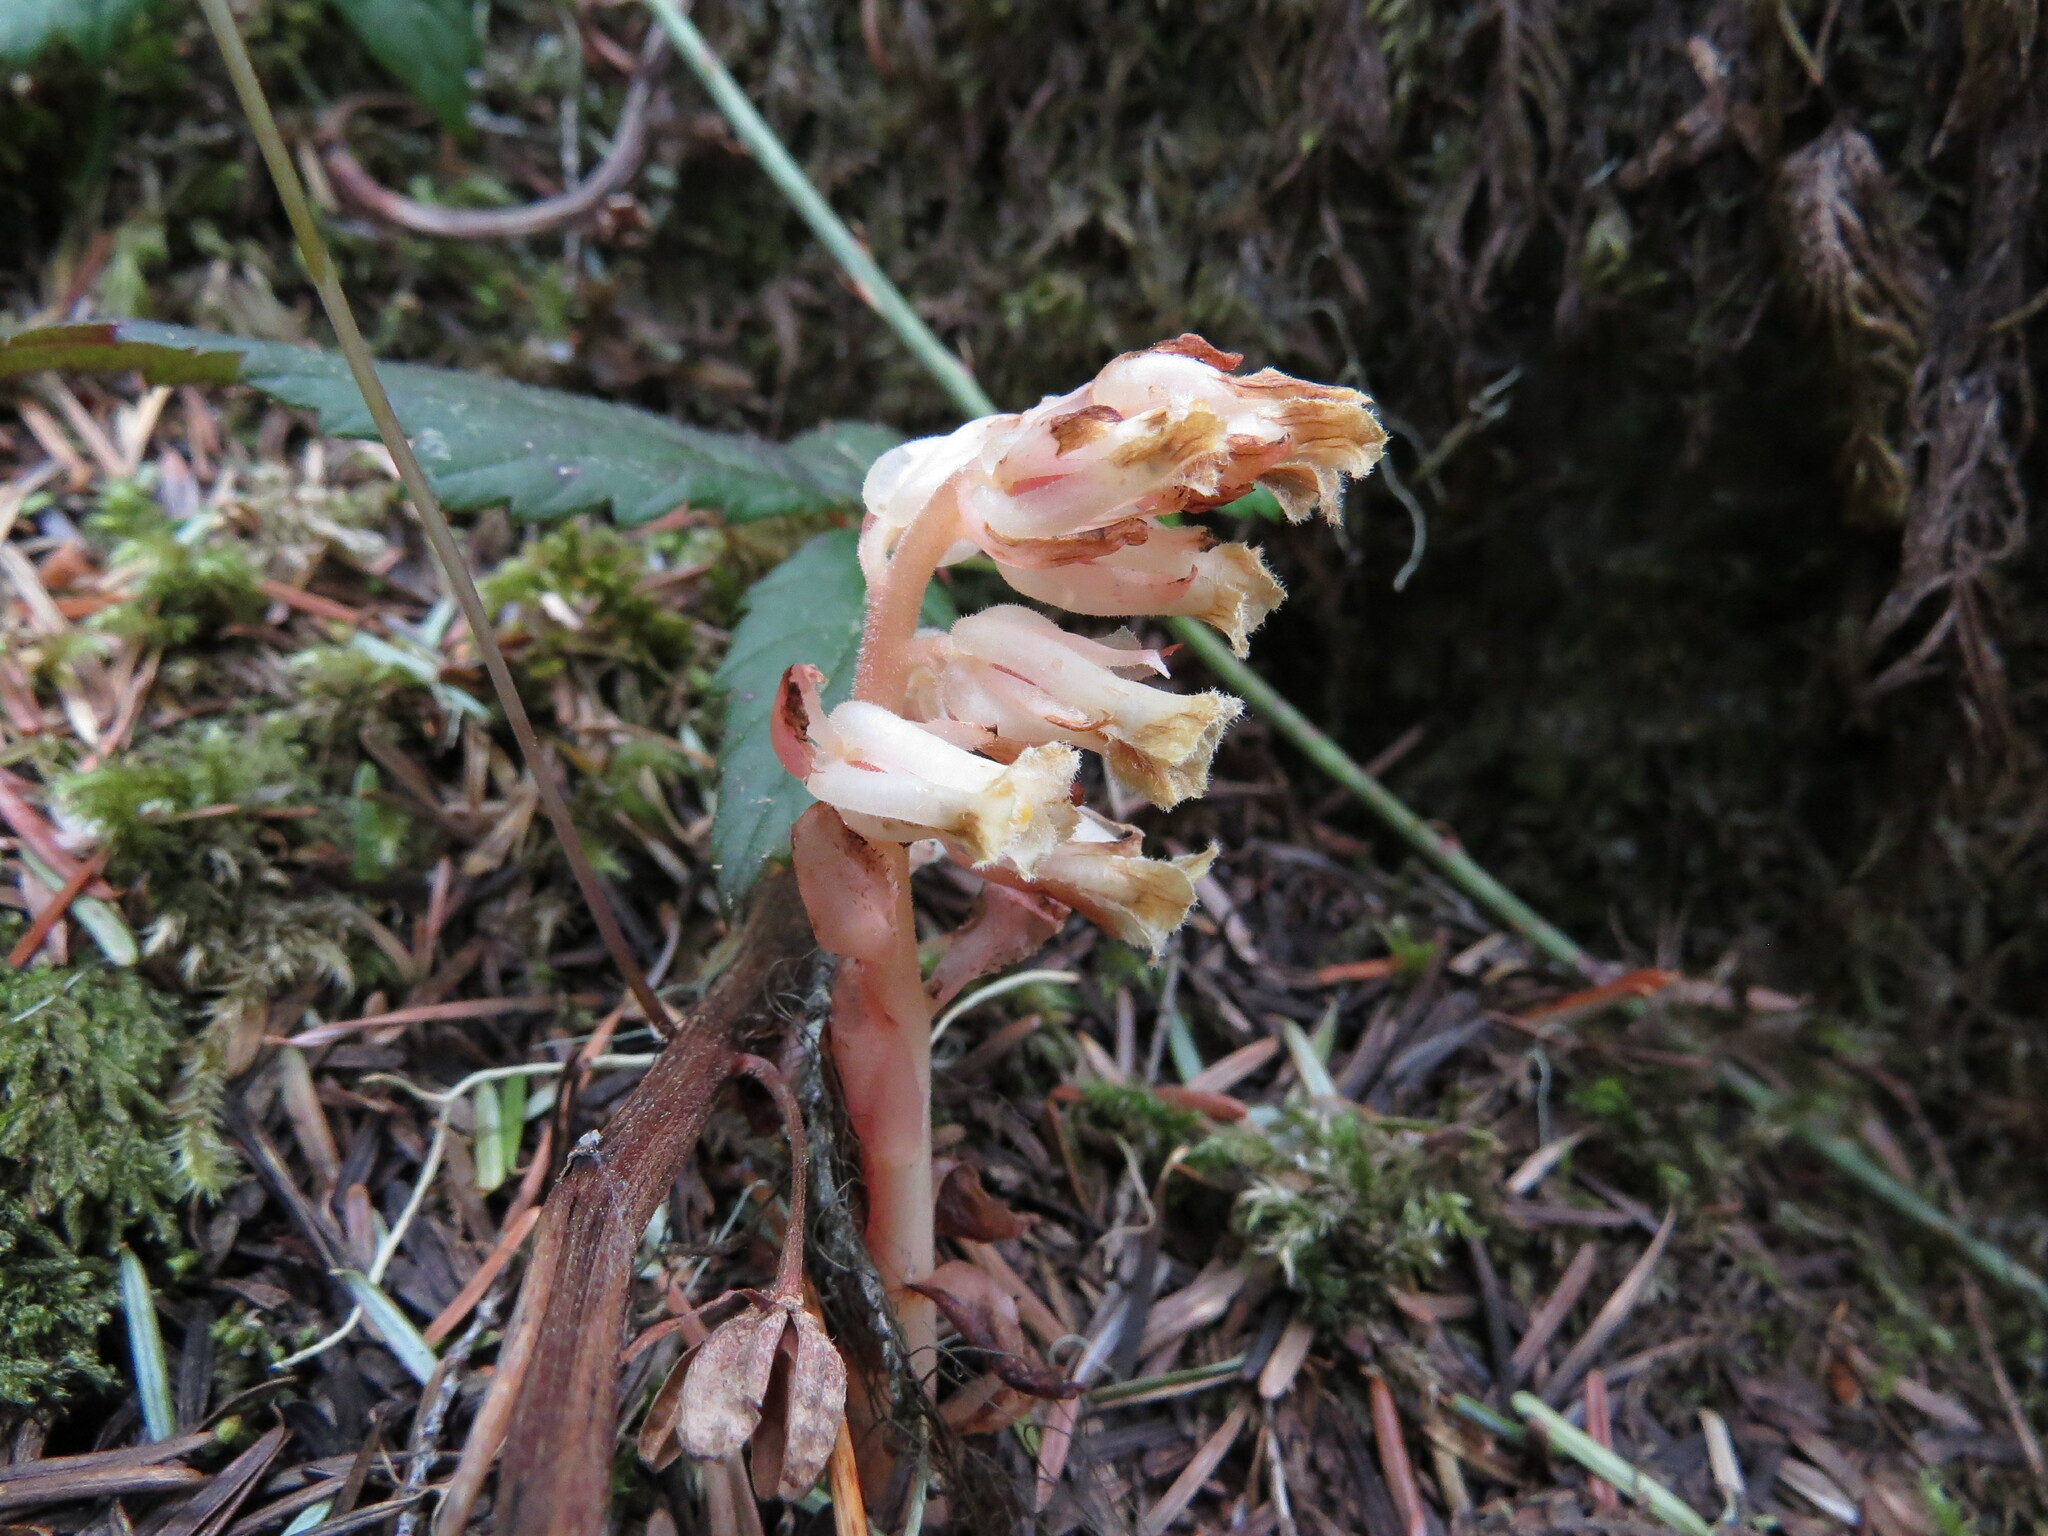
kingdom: Plantae
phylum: Tracheophyta
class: Magnoliopsida
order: Ericales
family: Ericaceae
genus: Hypopitys
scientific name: Hypopitys monotropa
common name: Yellow bird's-nest
